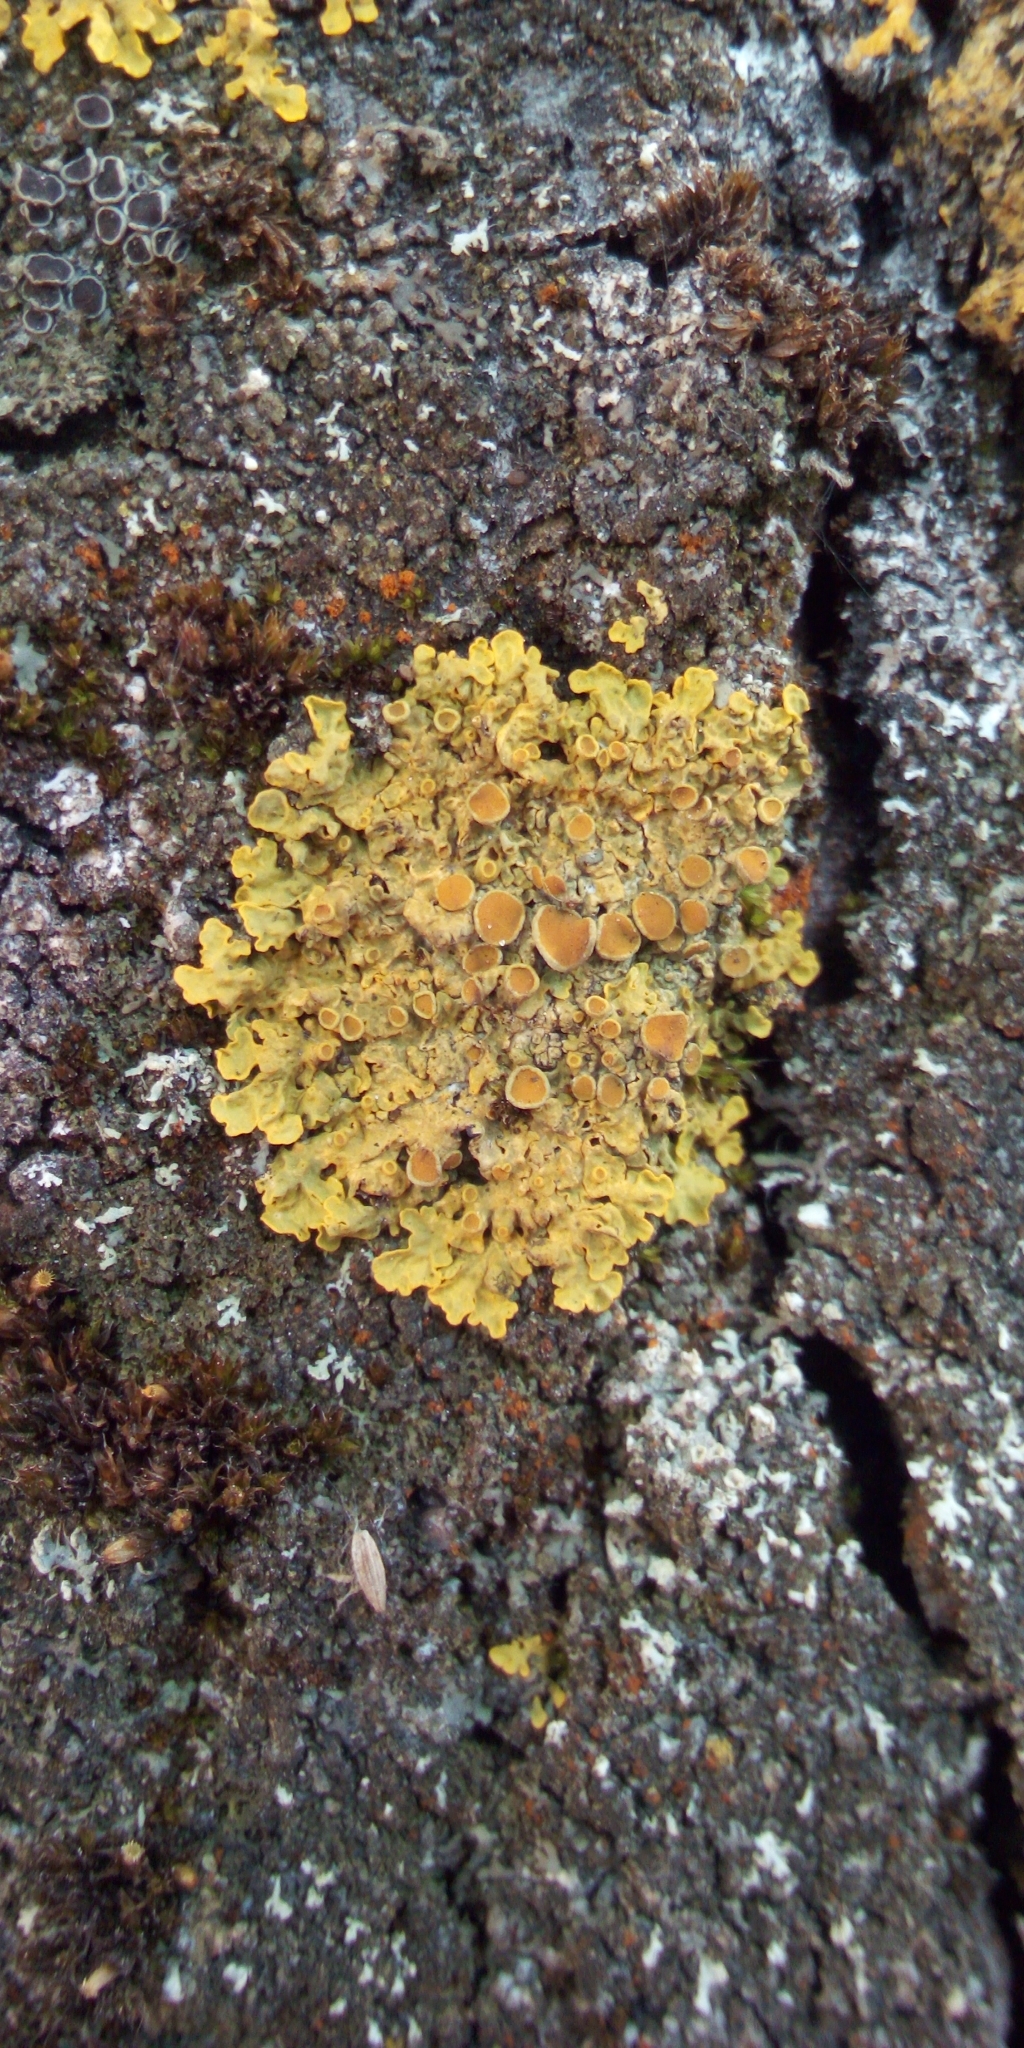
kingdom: Fungi
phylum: Ascomycota
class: Lecanoromycetes
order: Teloschistales
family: Teloschistaceae
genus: Xanthoria
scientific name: Xanthoria parietina
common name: Common orange lichen
